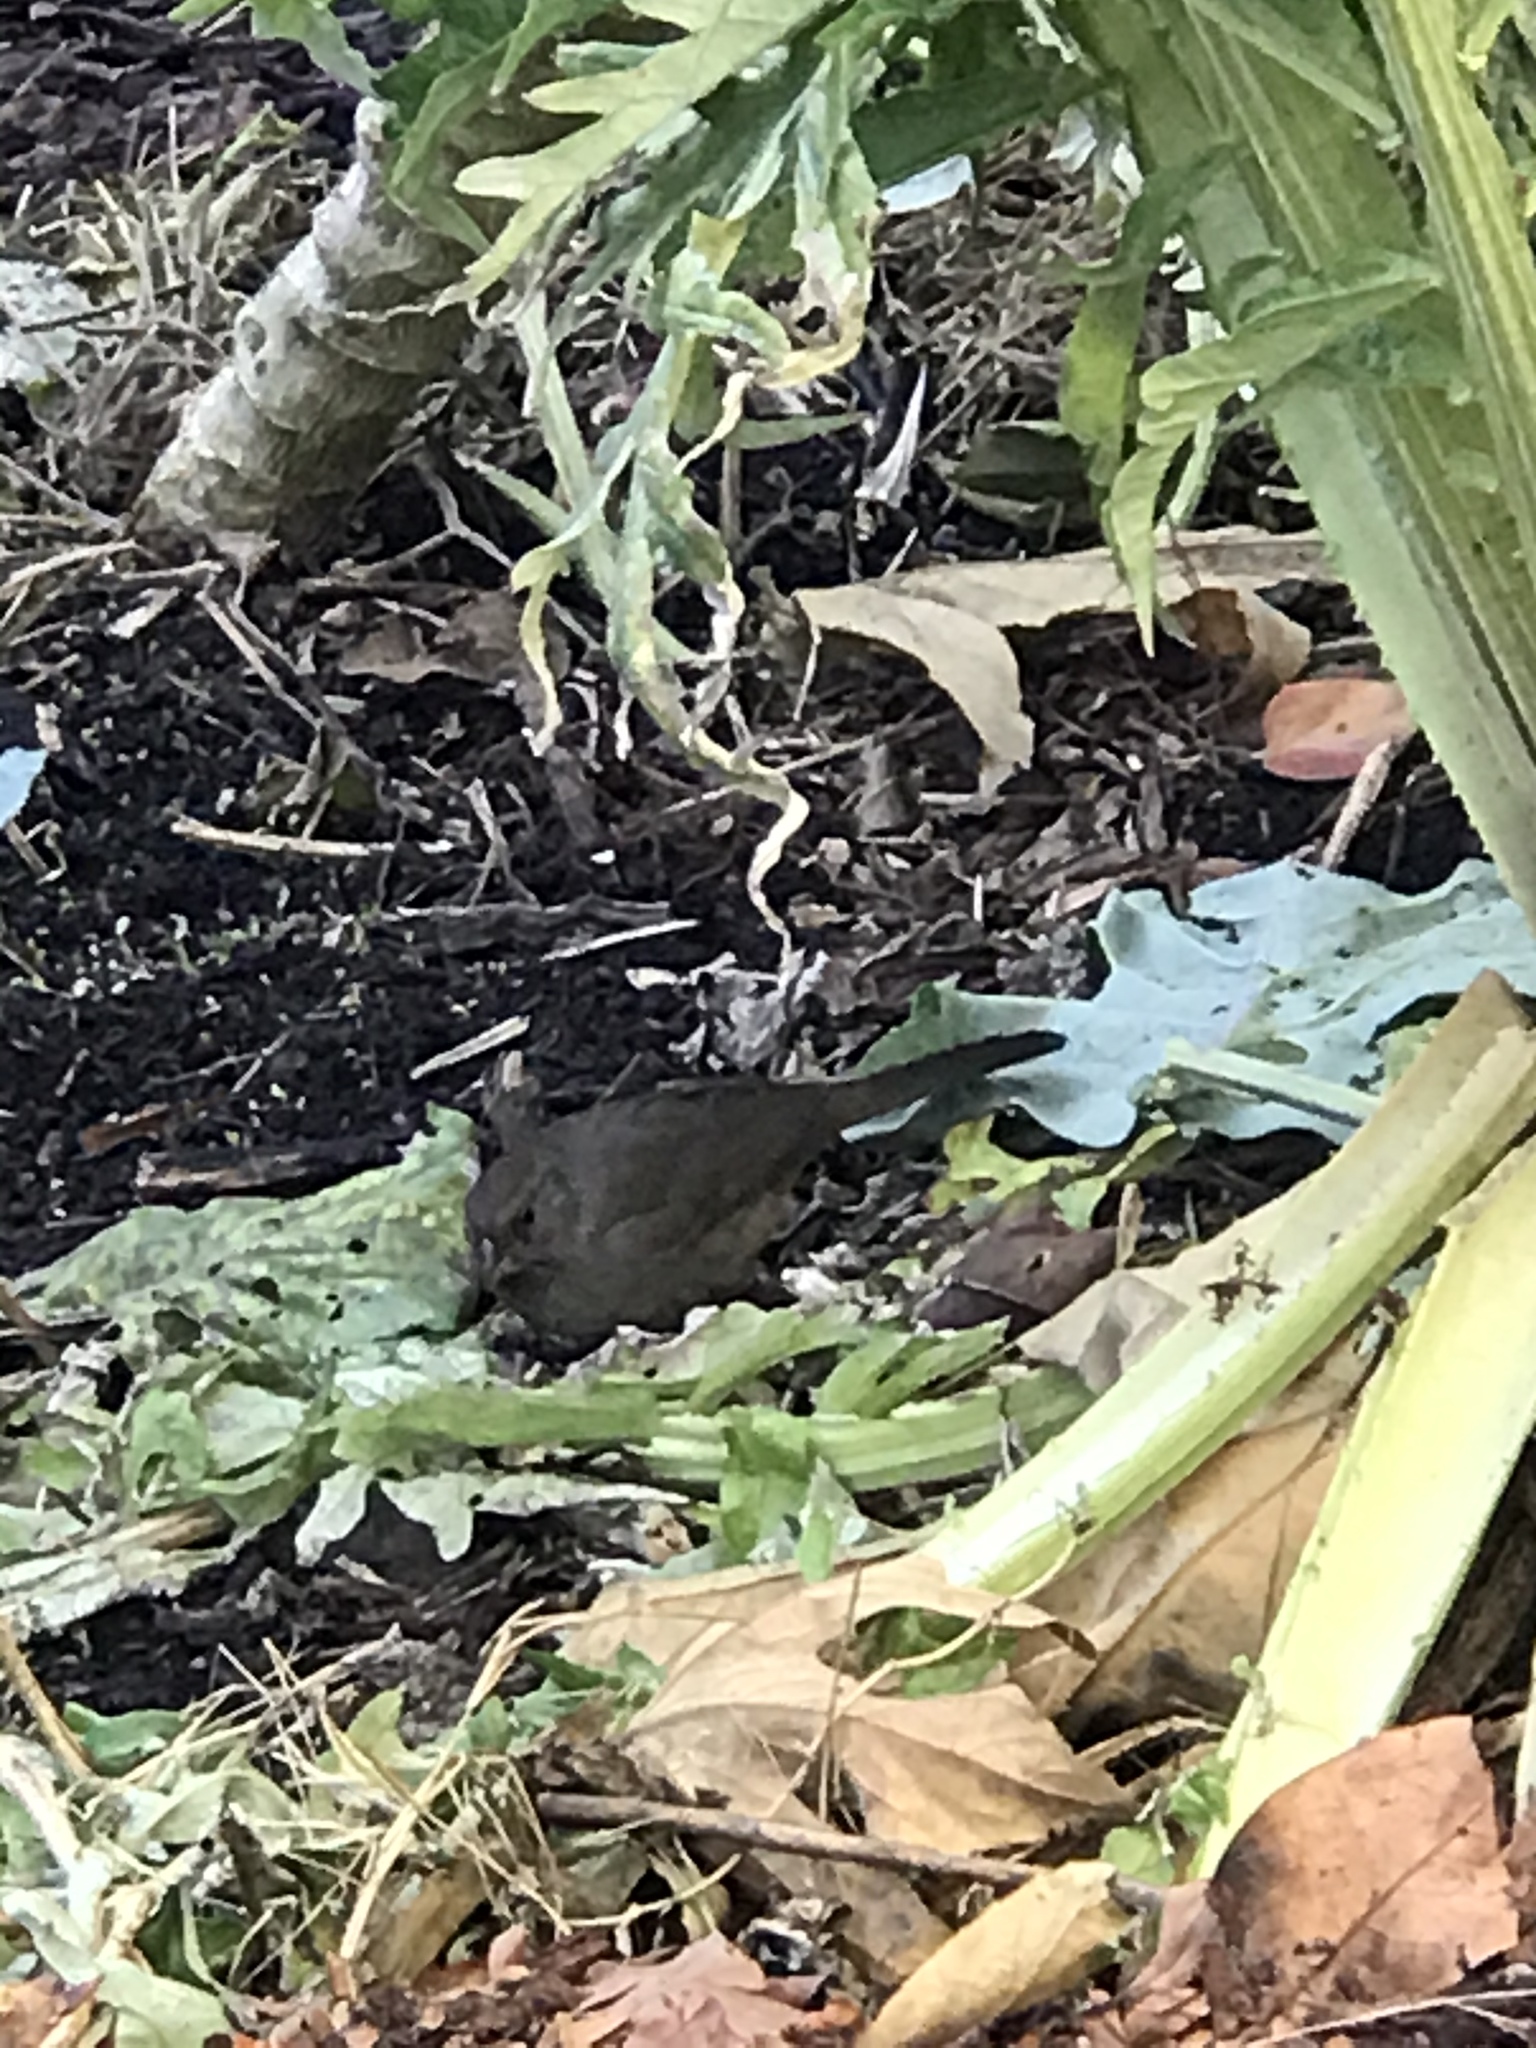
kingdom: Animalia
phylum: Chordata
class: Aves
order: Passeriformes
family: Passerellidae
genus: Melozone
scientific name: Melozone crissalis
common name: California towhee
